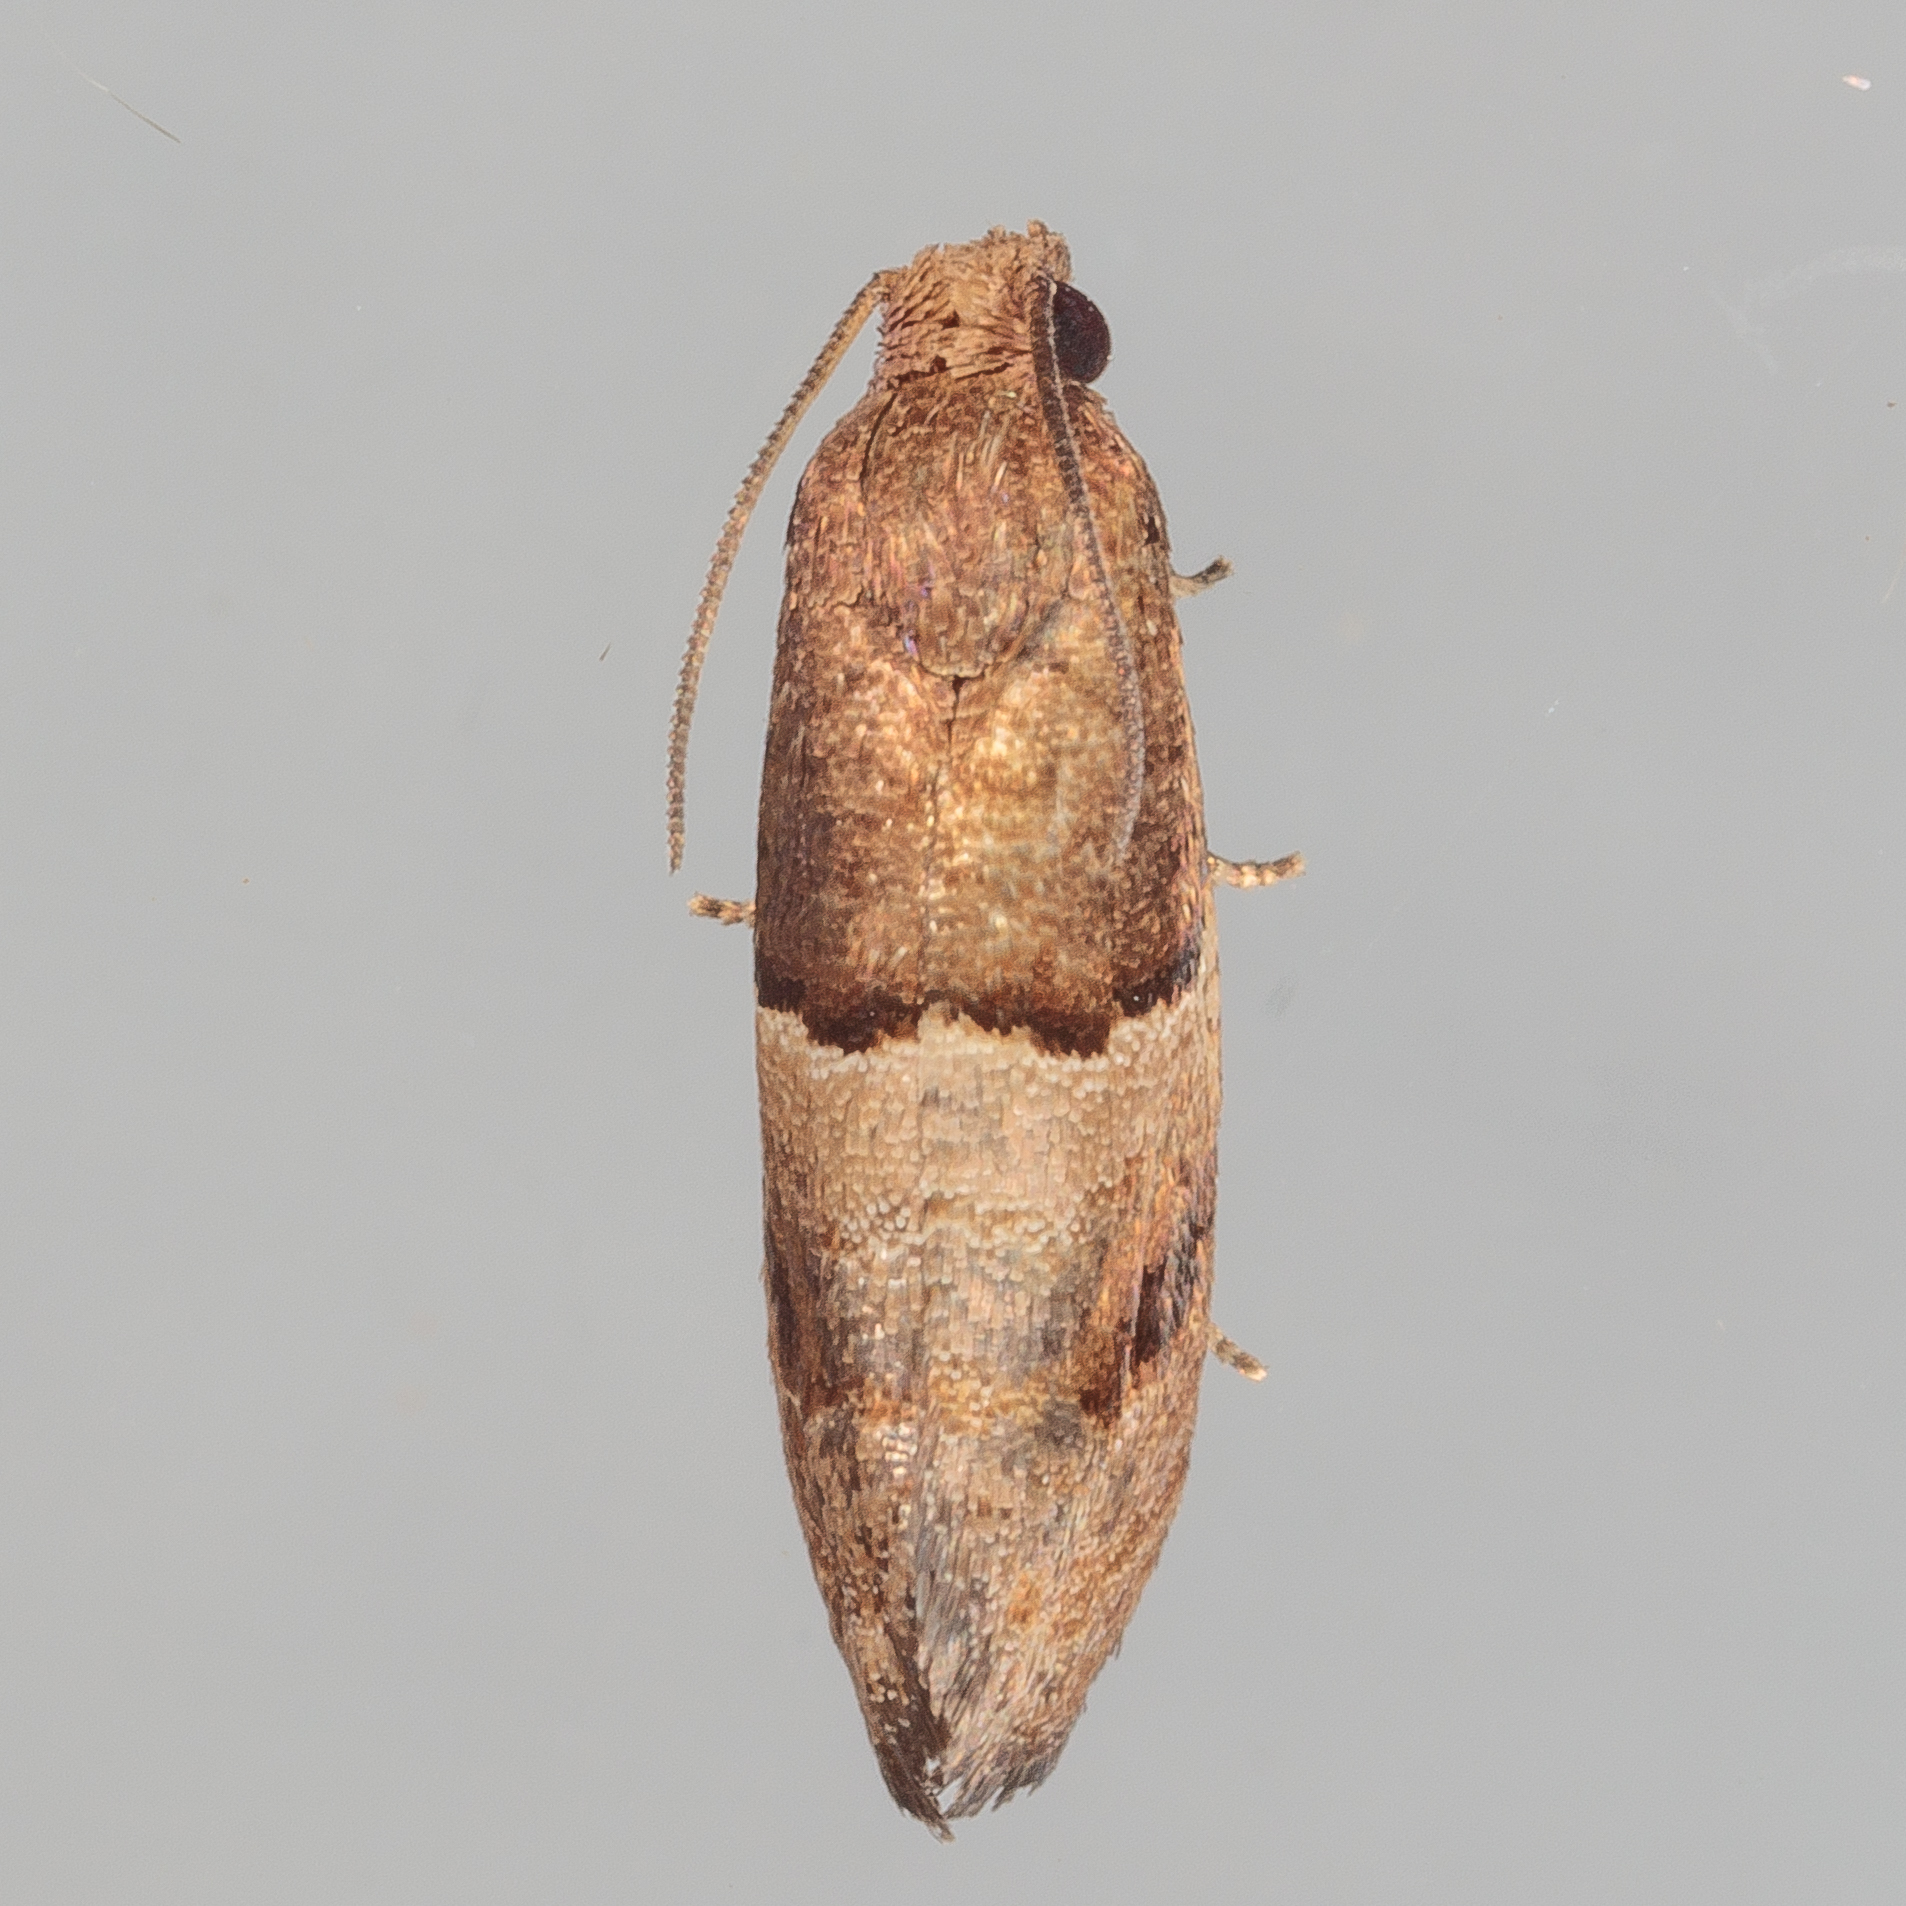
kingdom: Animalia
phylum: Arthropoda
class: Insecta
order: Lepidoptera
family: Tortricidae
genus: Larisa
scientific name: Larisa subsolana
